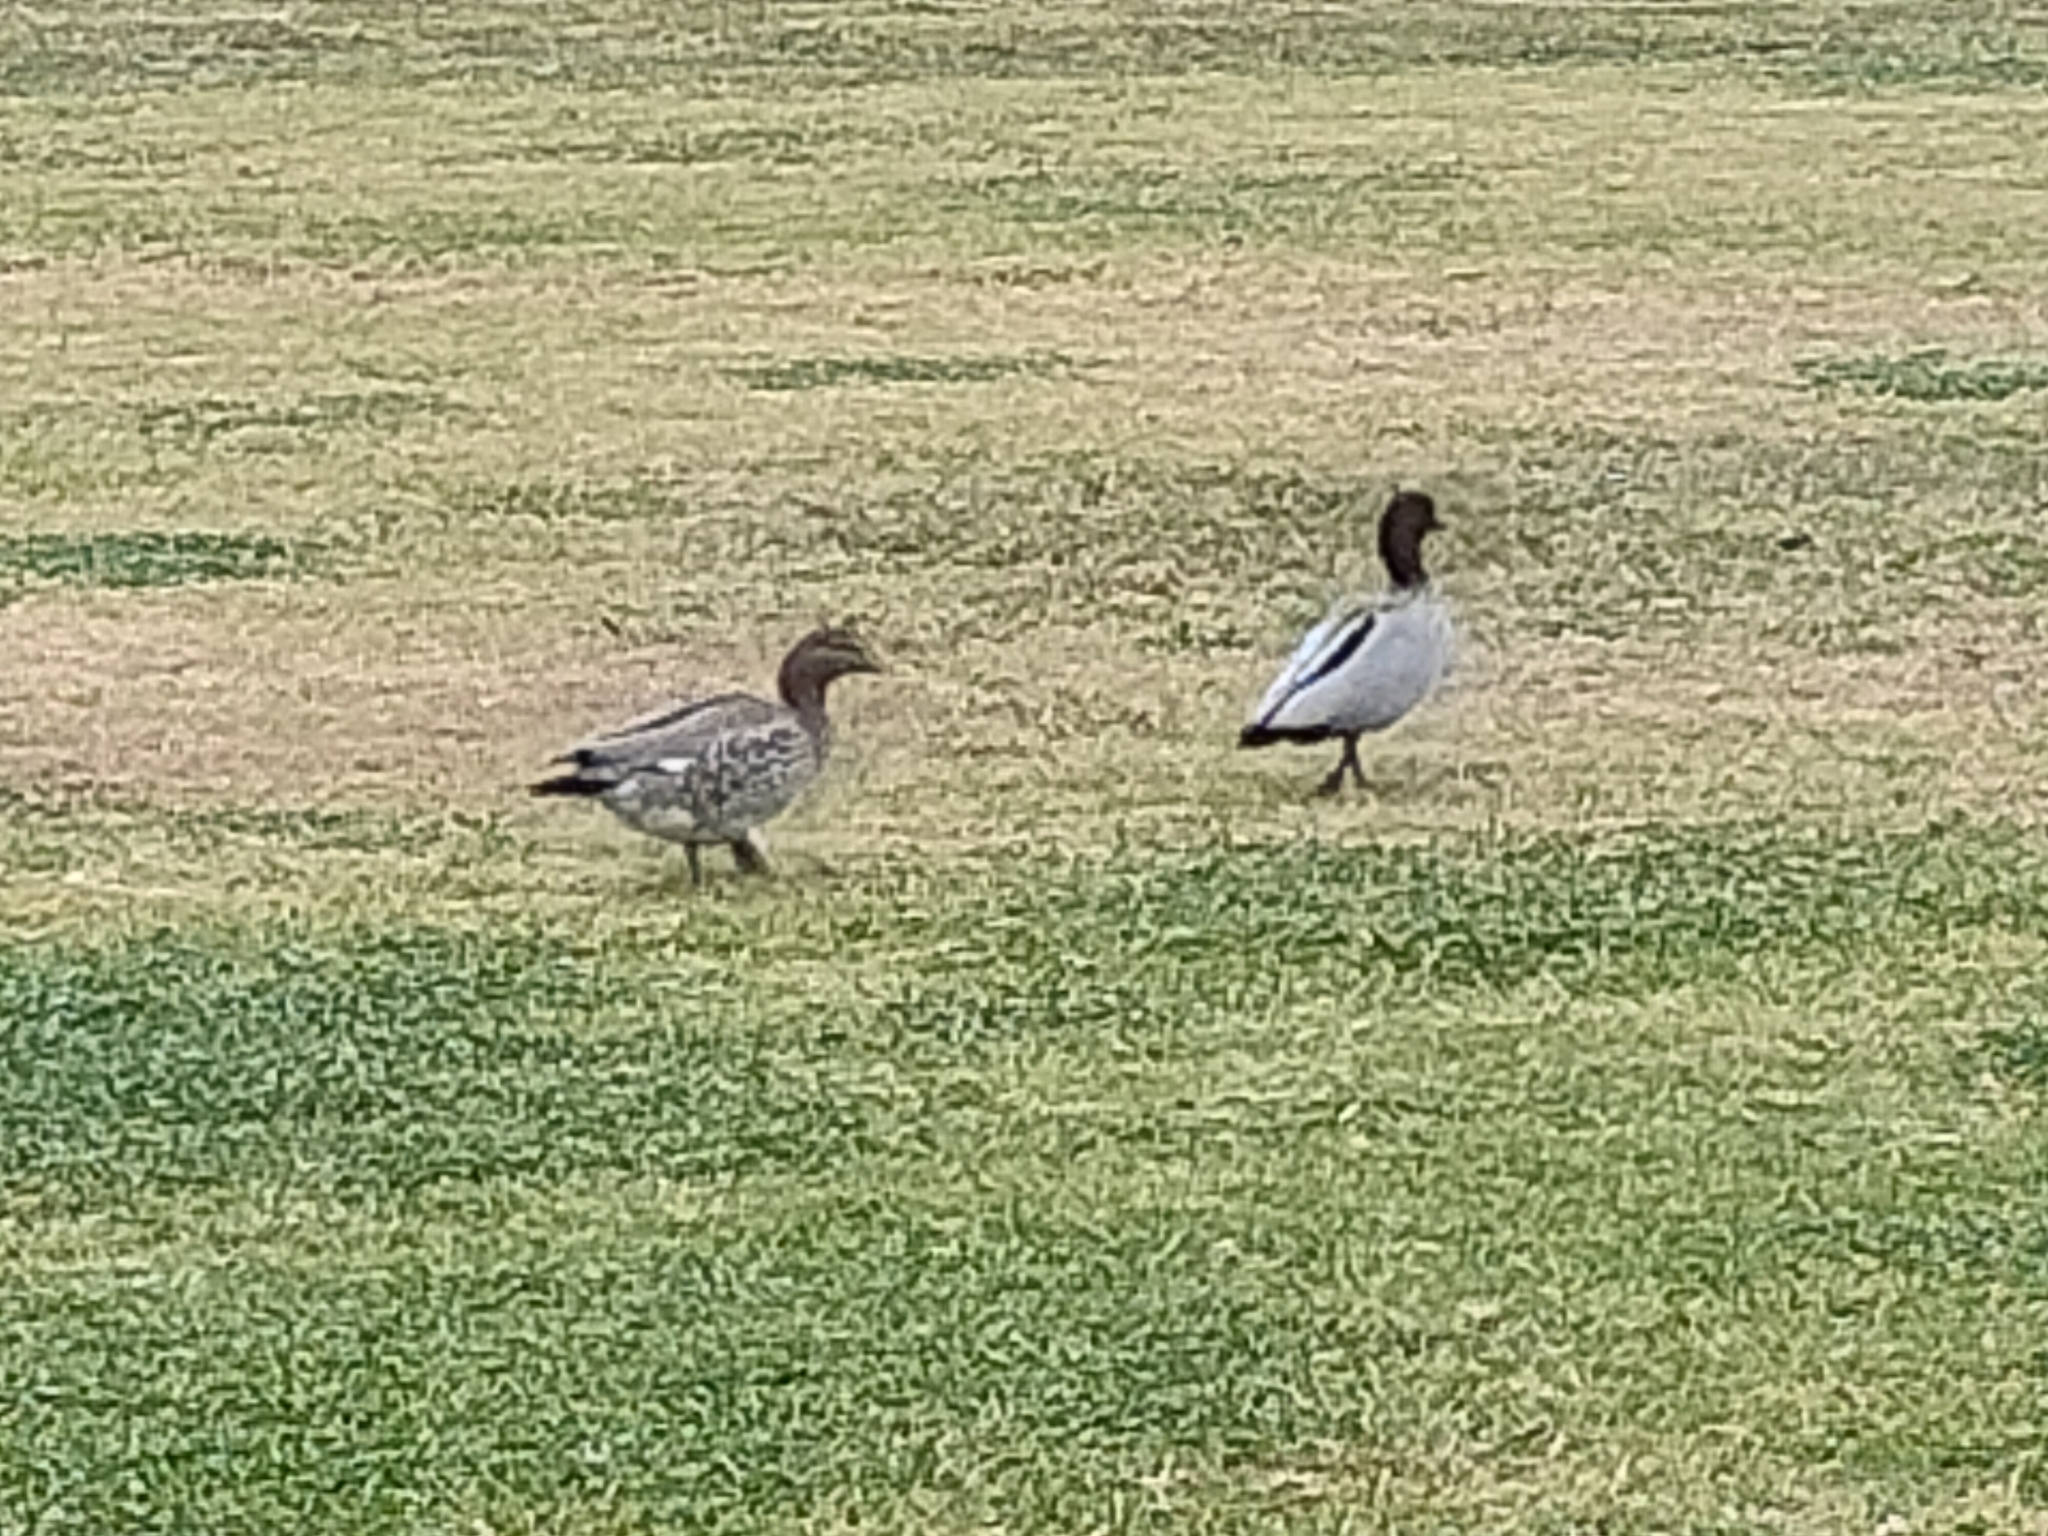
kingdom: Animalia
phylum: Chordata
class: Aves
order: Anseriformes
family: Anatidae
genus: Chenonetta
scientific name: Chenonetta jubata
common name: Maned duck
